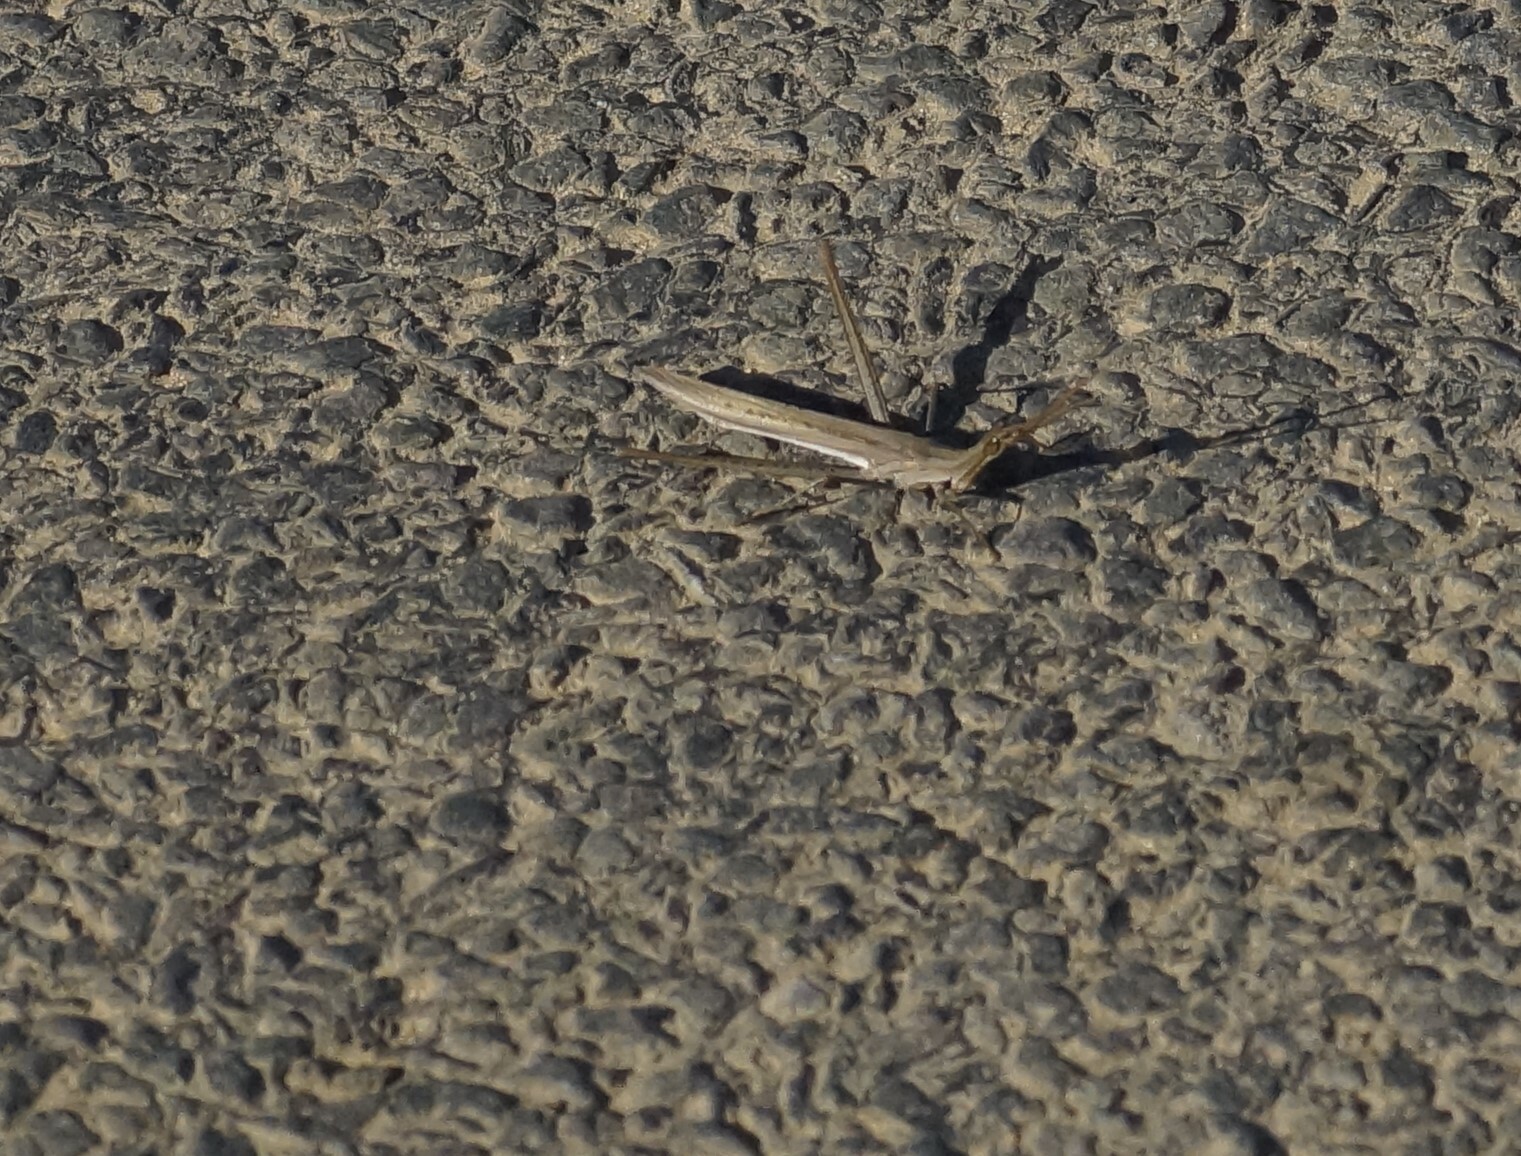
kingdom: Animalia
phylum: Arthropoda
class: Insecta
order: Orthoptera
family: Acrididae
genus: Acrida
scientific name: Acrida conica
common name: Giant green slantface
